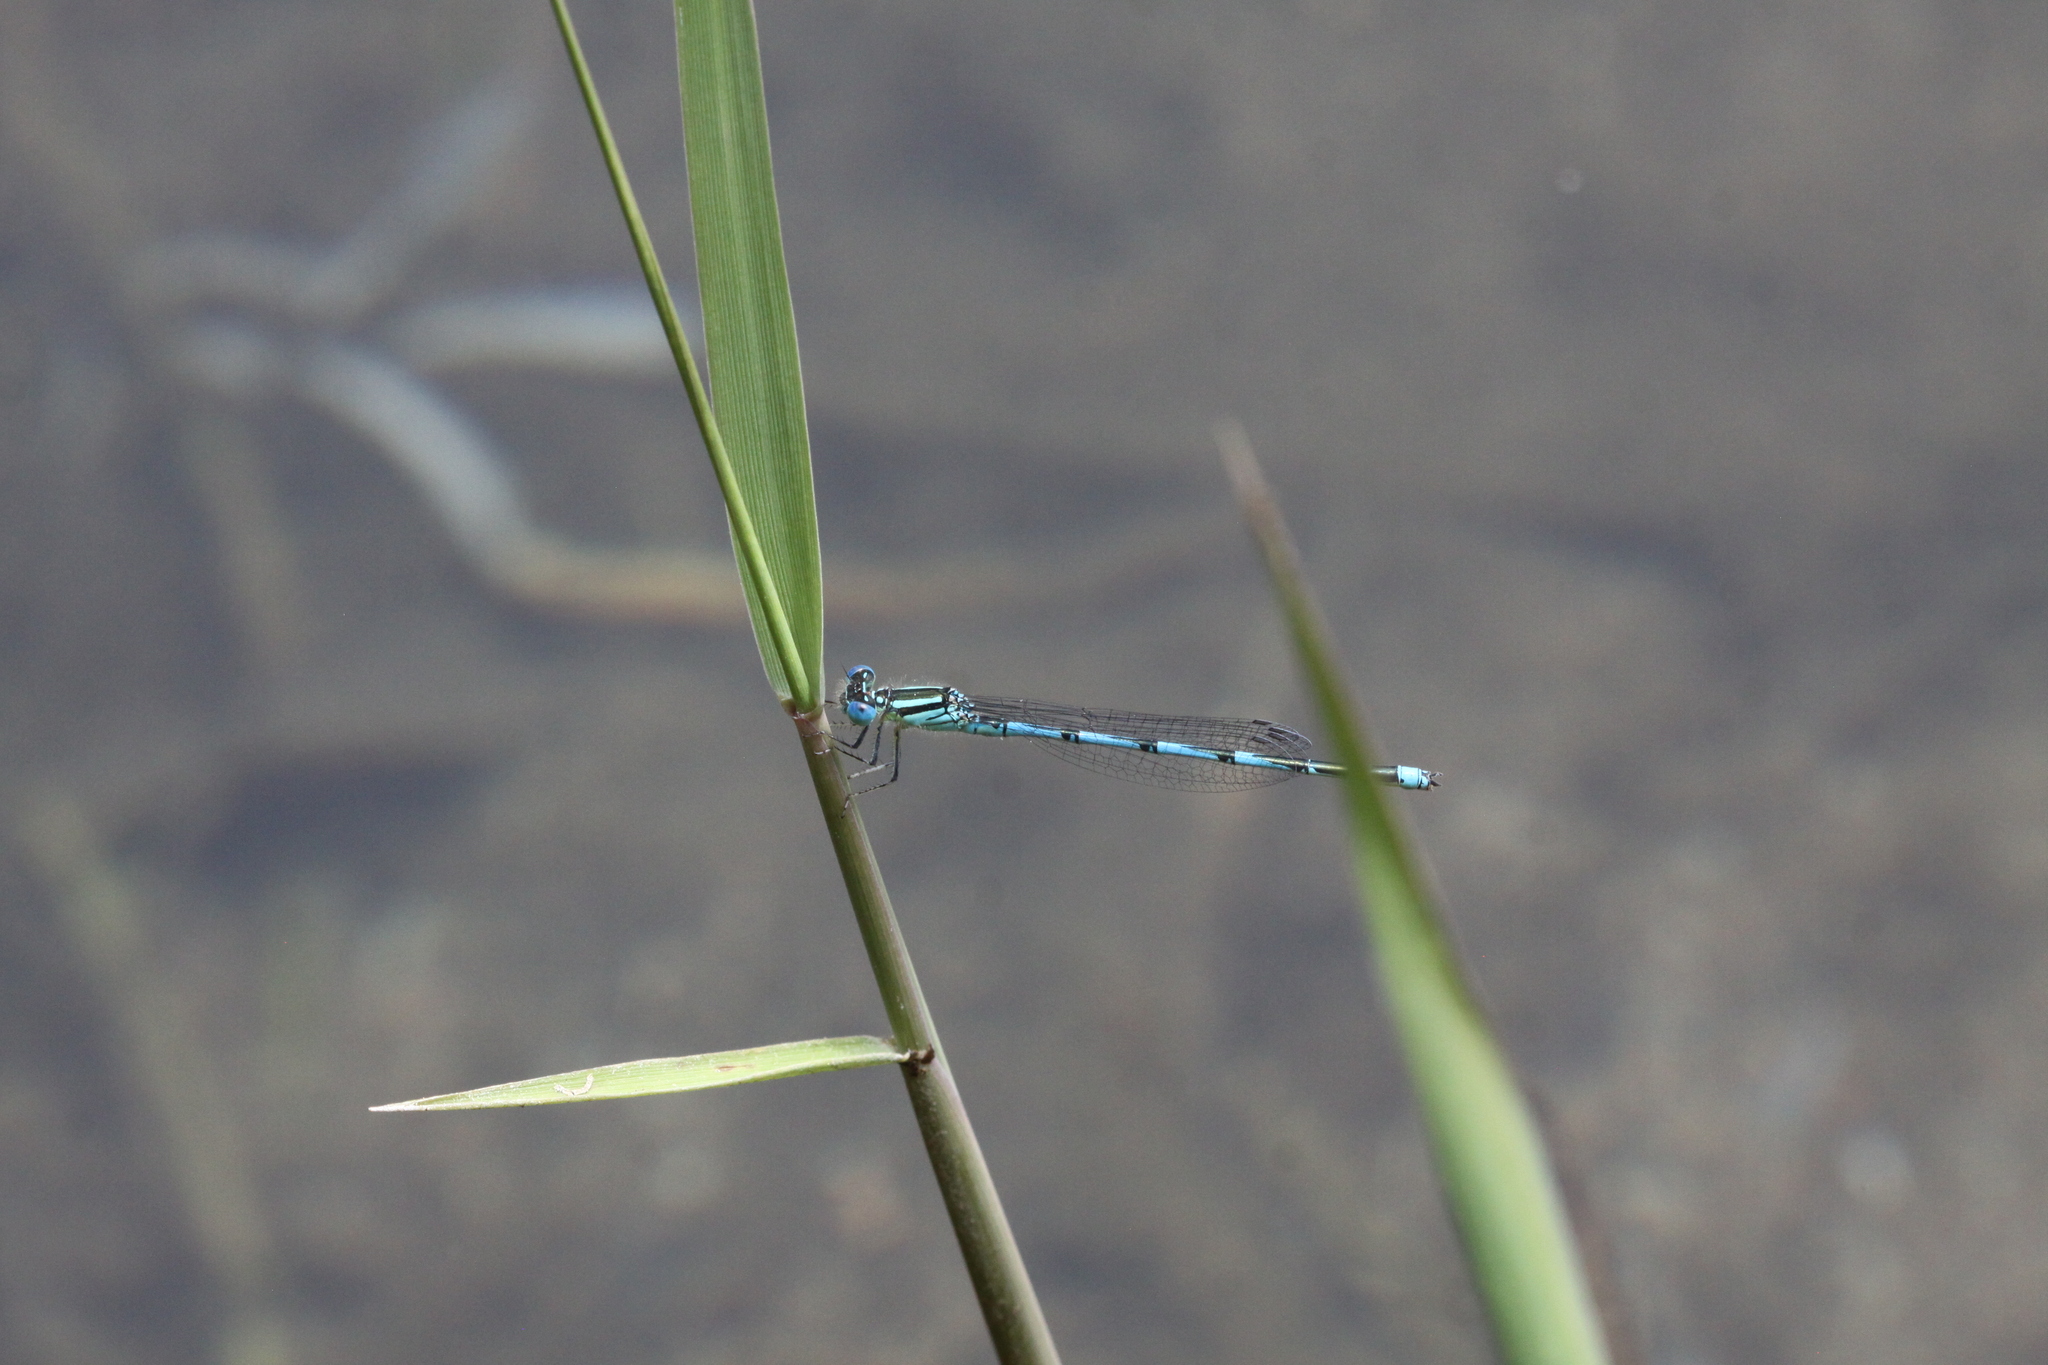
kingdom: Animalia
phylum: Arthropoda
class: Insecta
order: Odonata
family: Coenagrionidae
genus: Erythromma
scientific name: Erythromma lindenii
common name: Blue-eye
